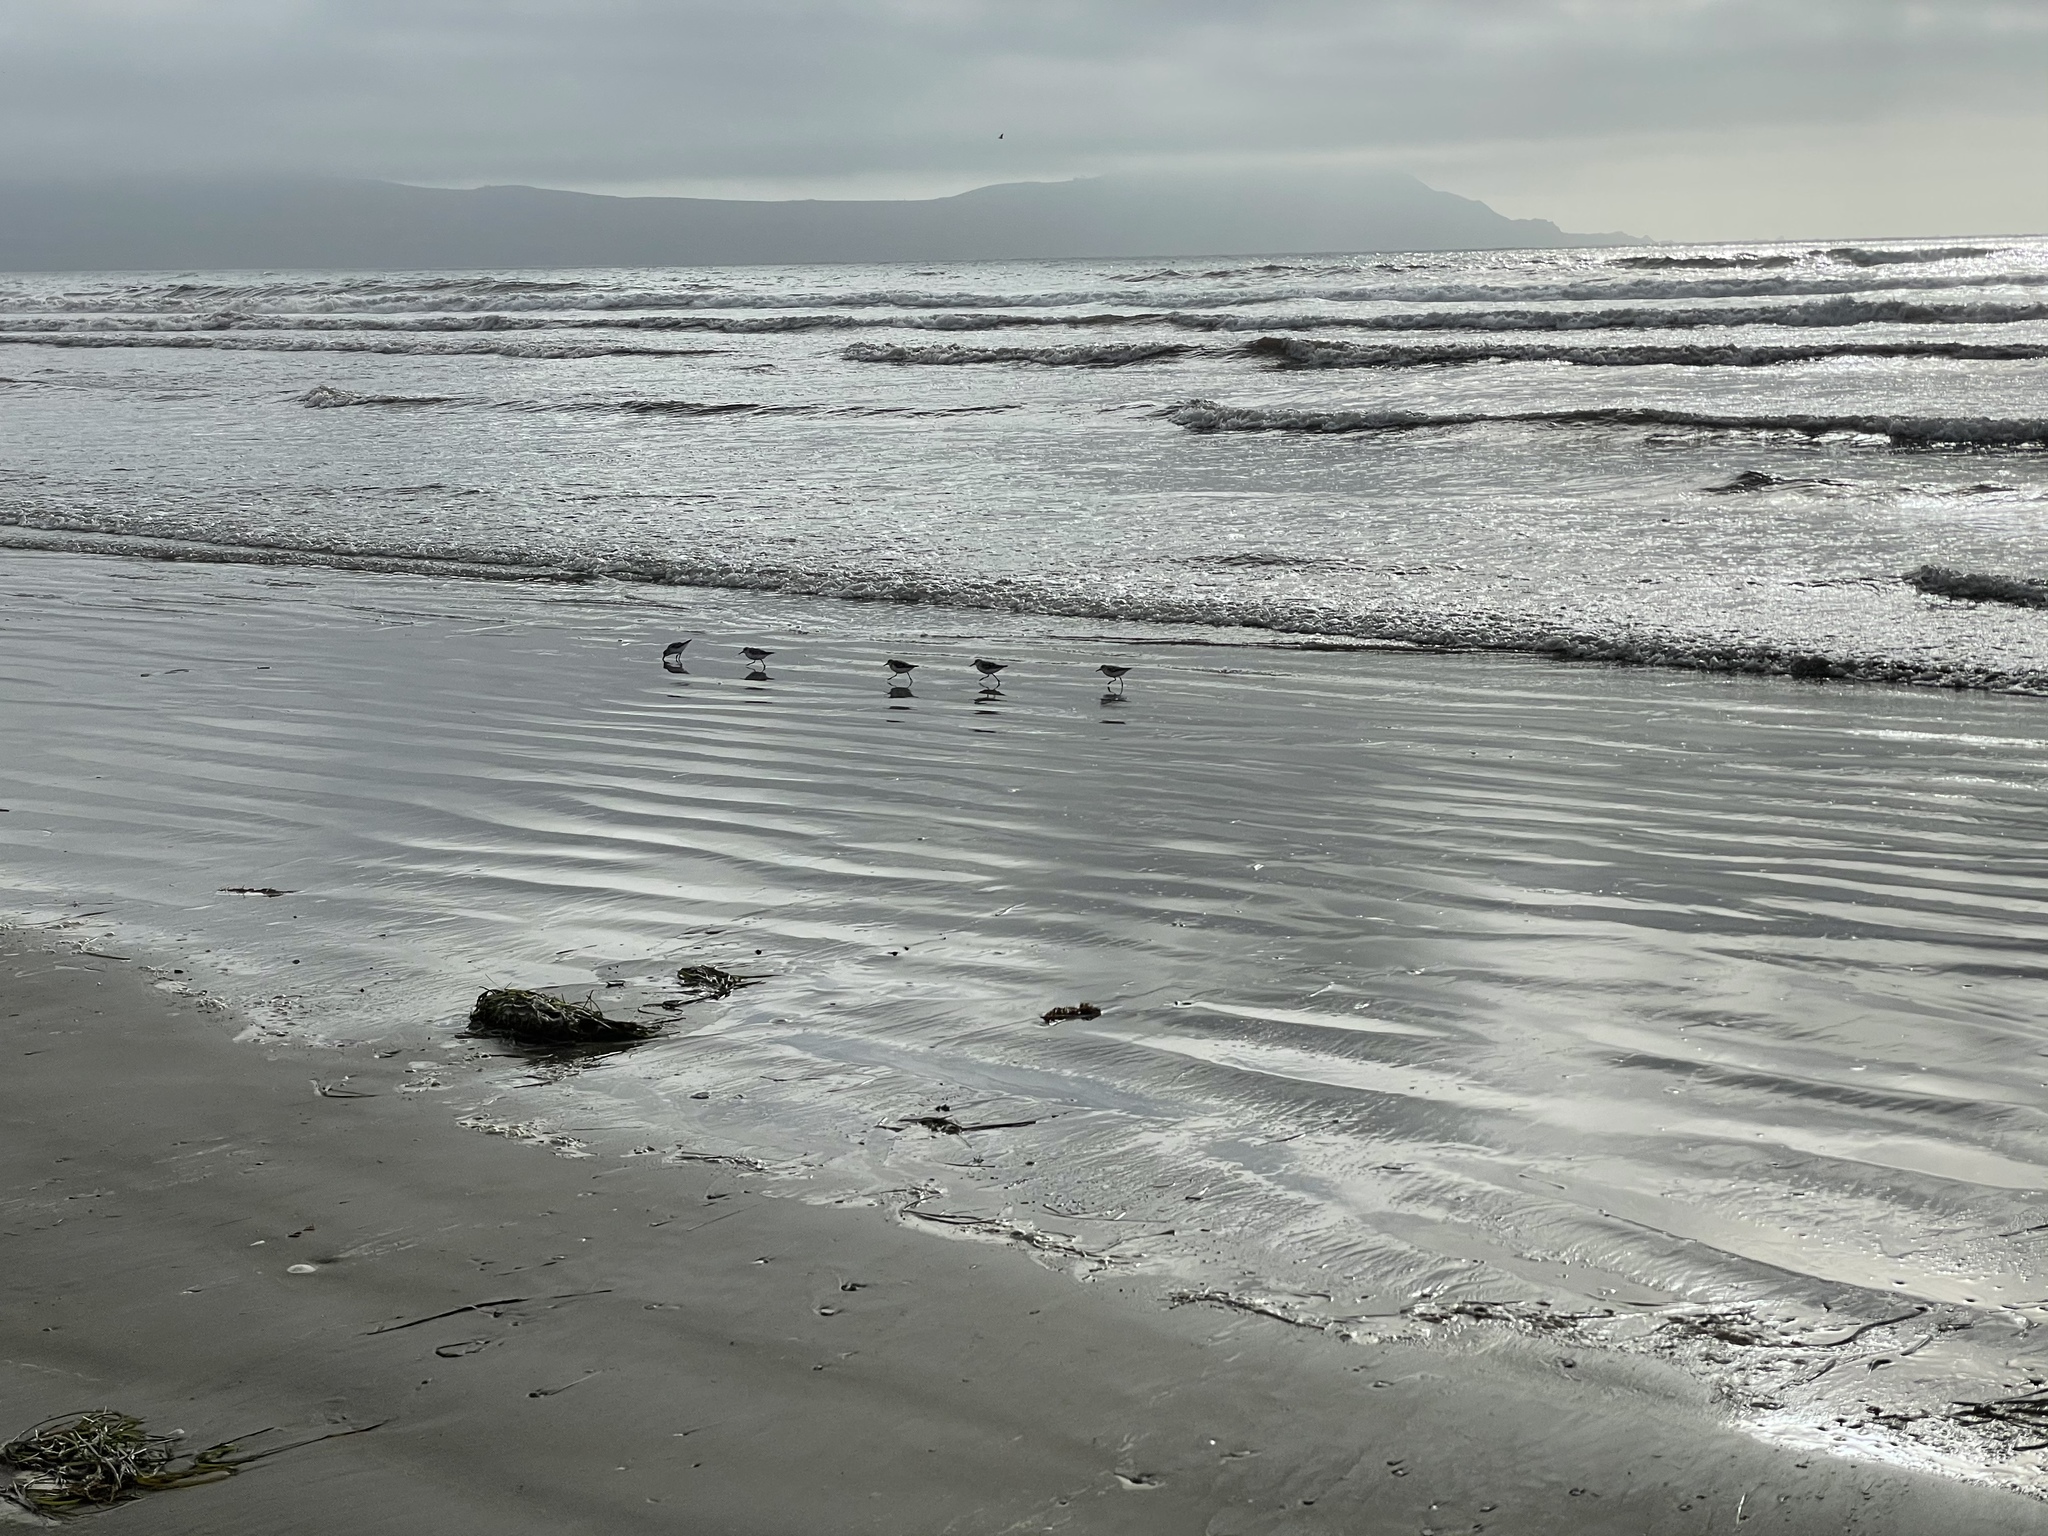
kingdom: Animalia
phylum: Chordata
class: Aves
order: Charadriiformes
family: Scolopacidae
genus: Calidris
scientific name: Calidris alba
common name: Sanderling
